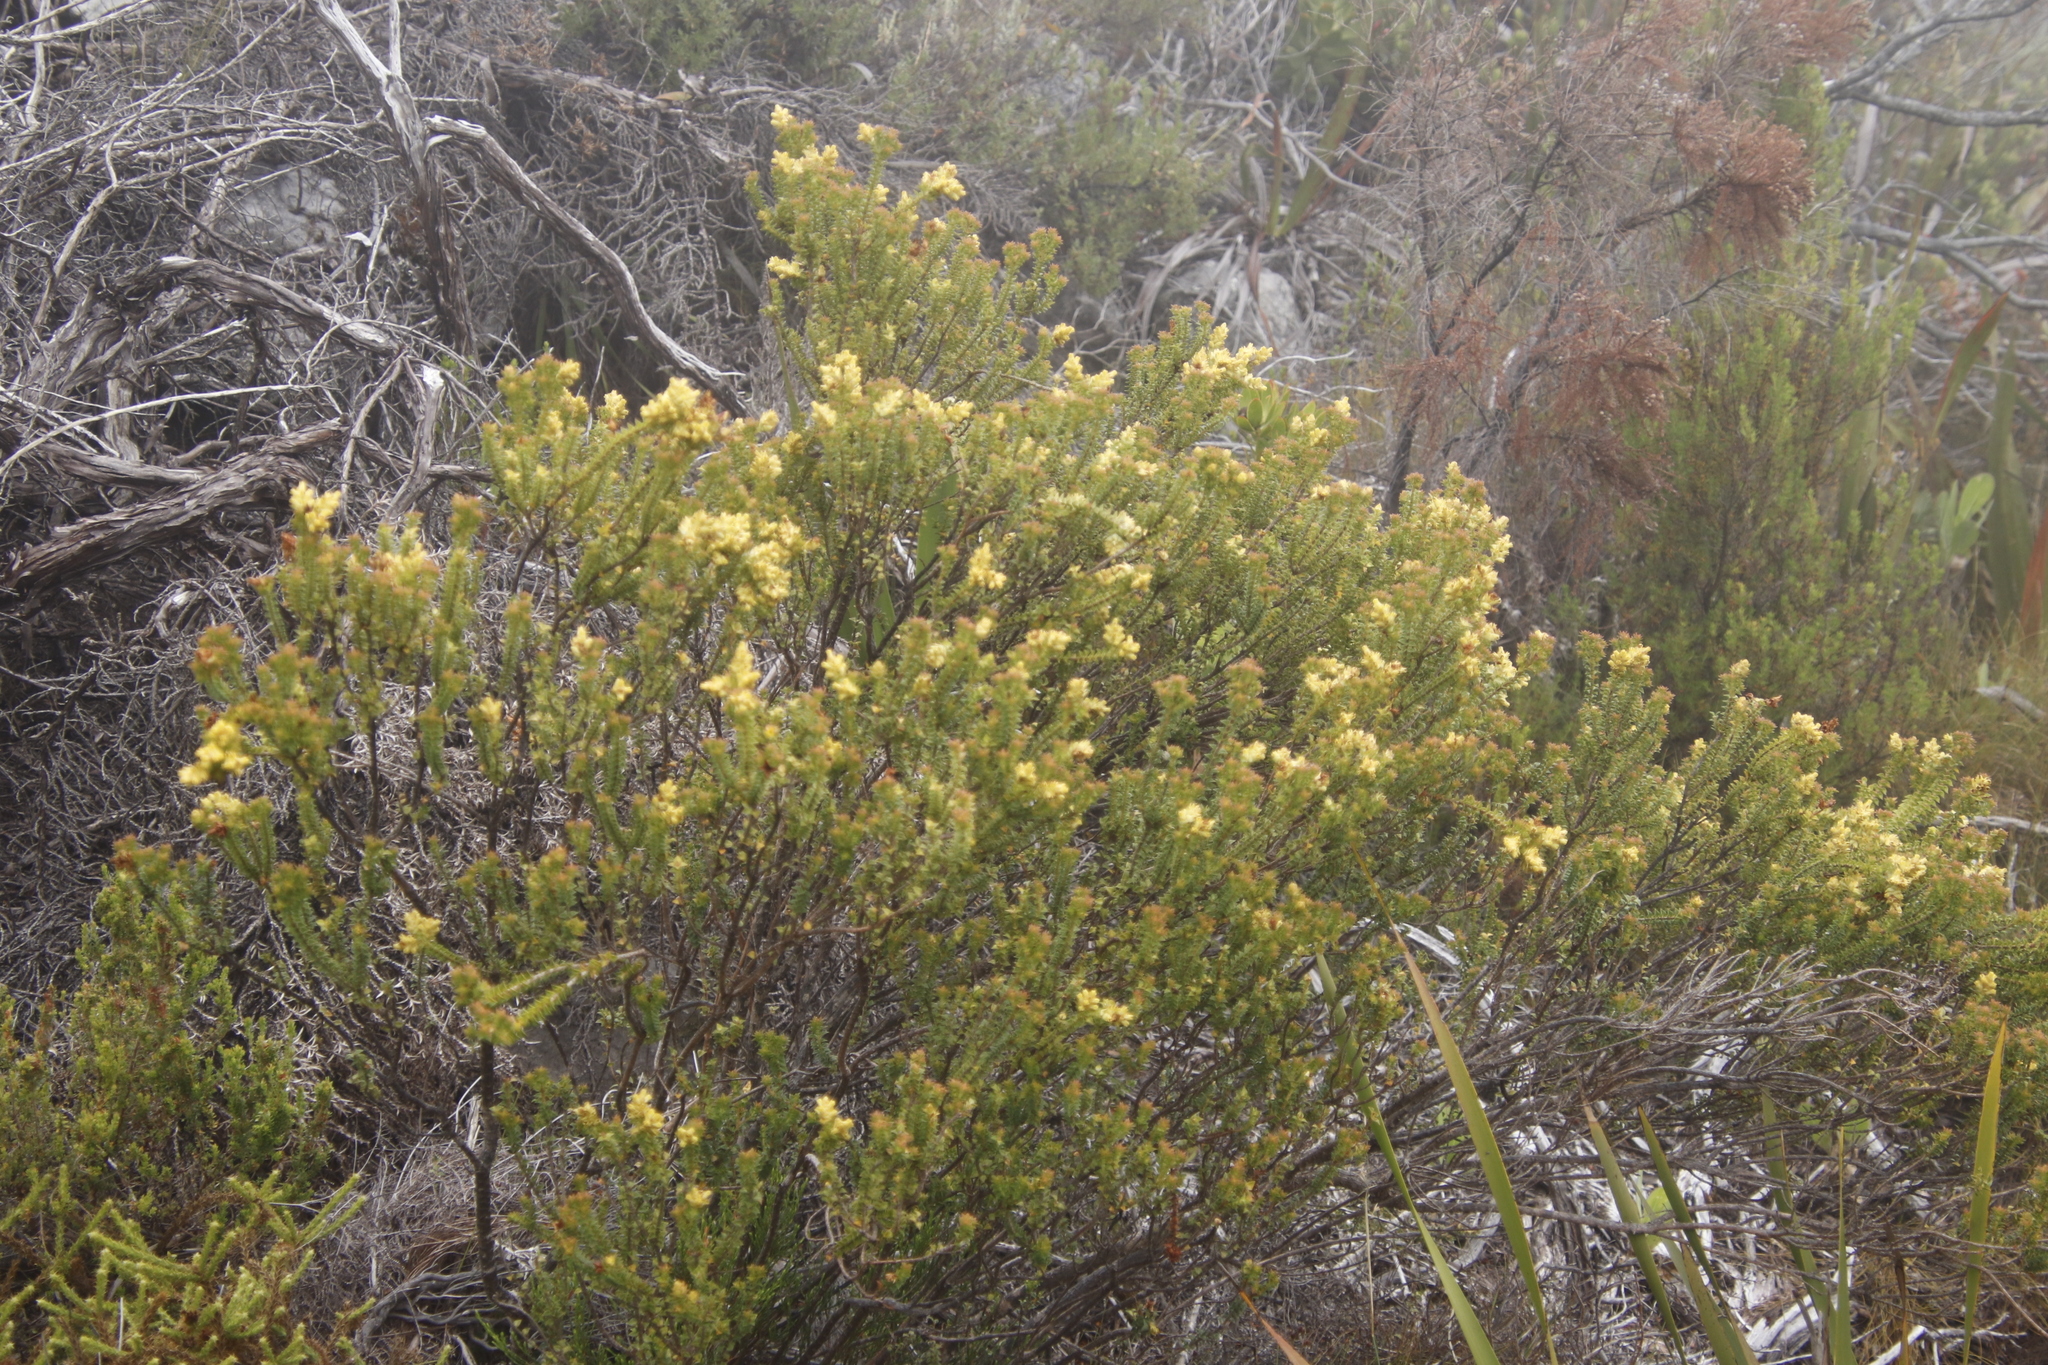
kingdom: Plantae
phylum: Tracheophyta
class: Magnoliopsida
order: Myrtales
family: Penaeaceae
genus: Penaea
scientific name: Penaea mucronata
